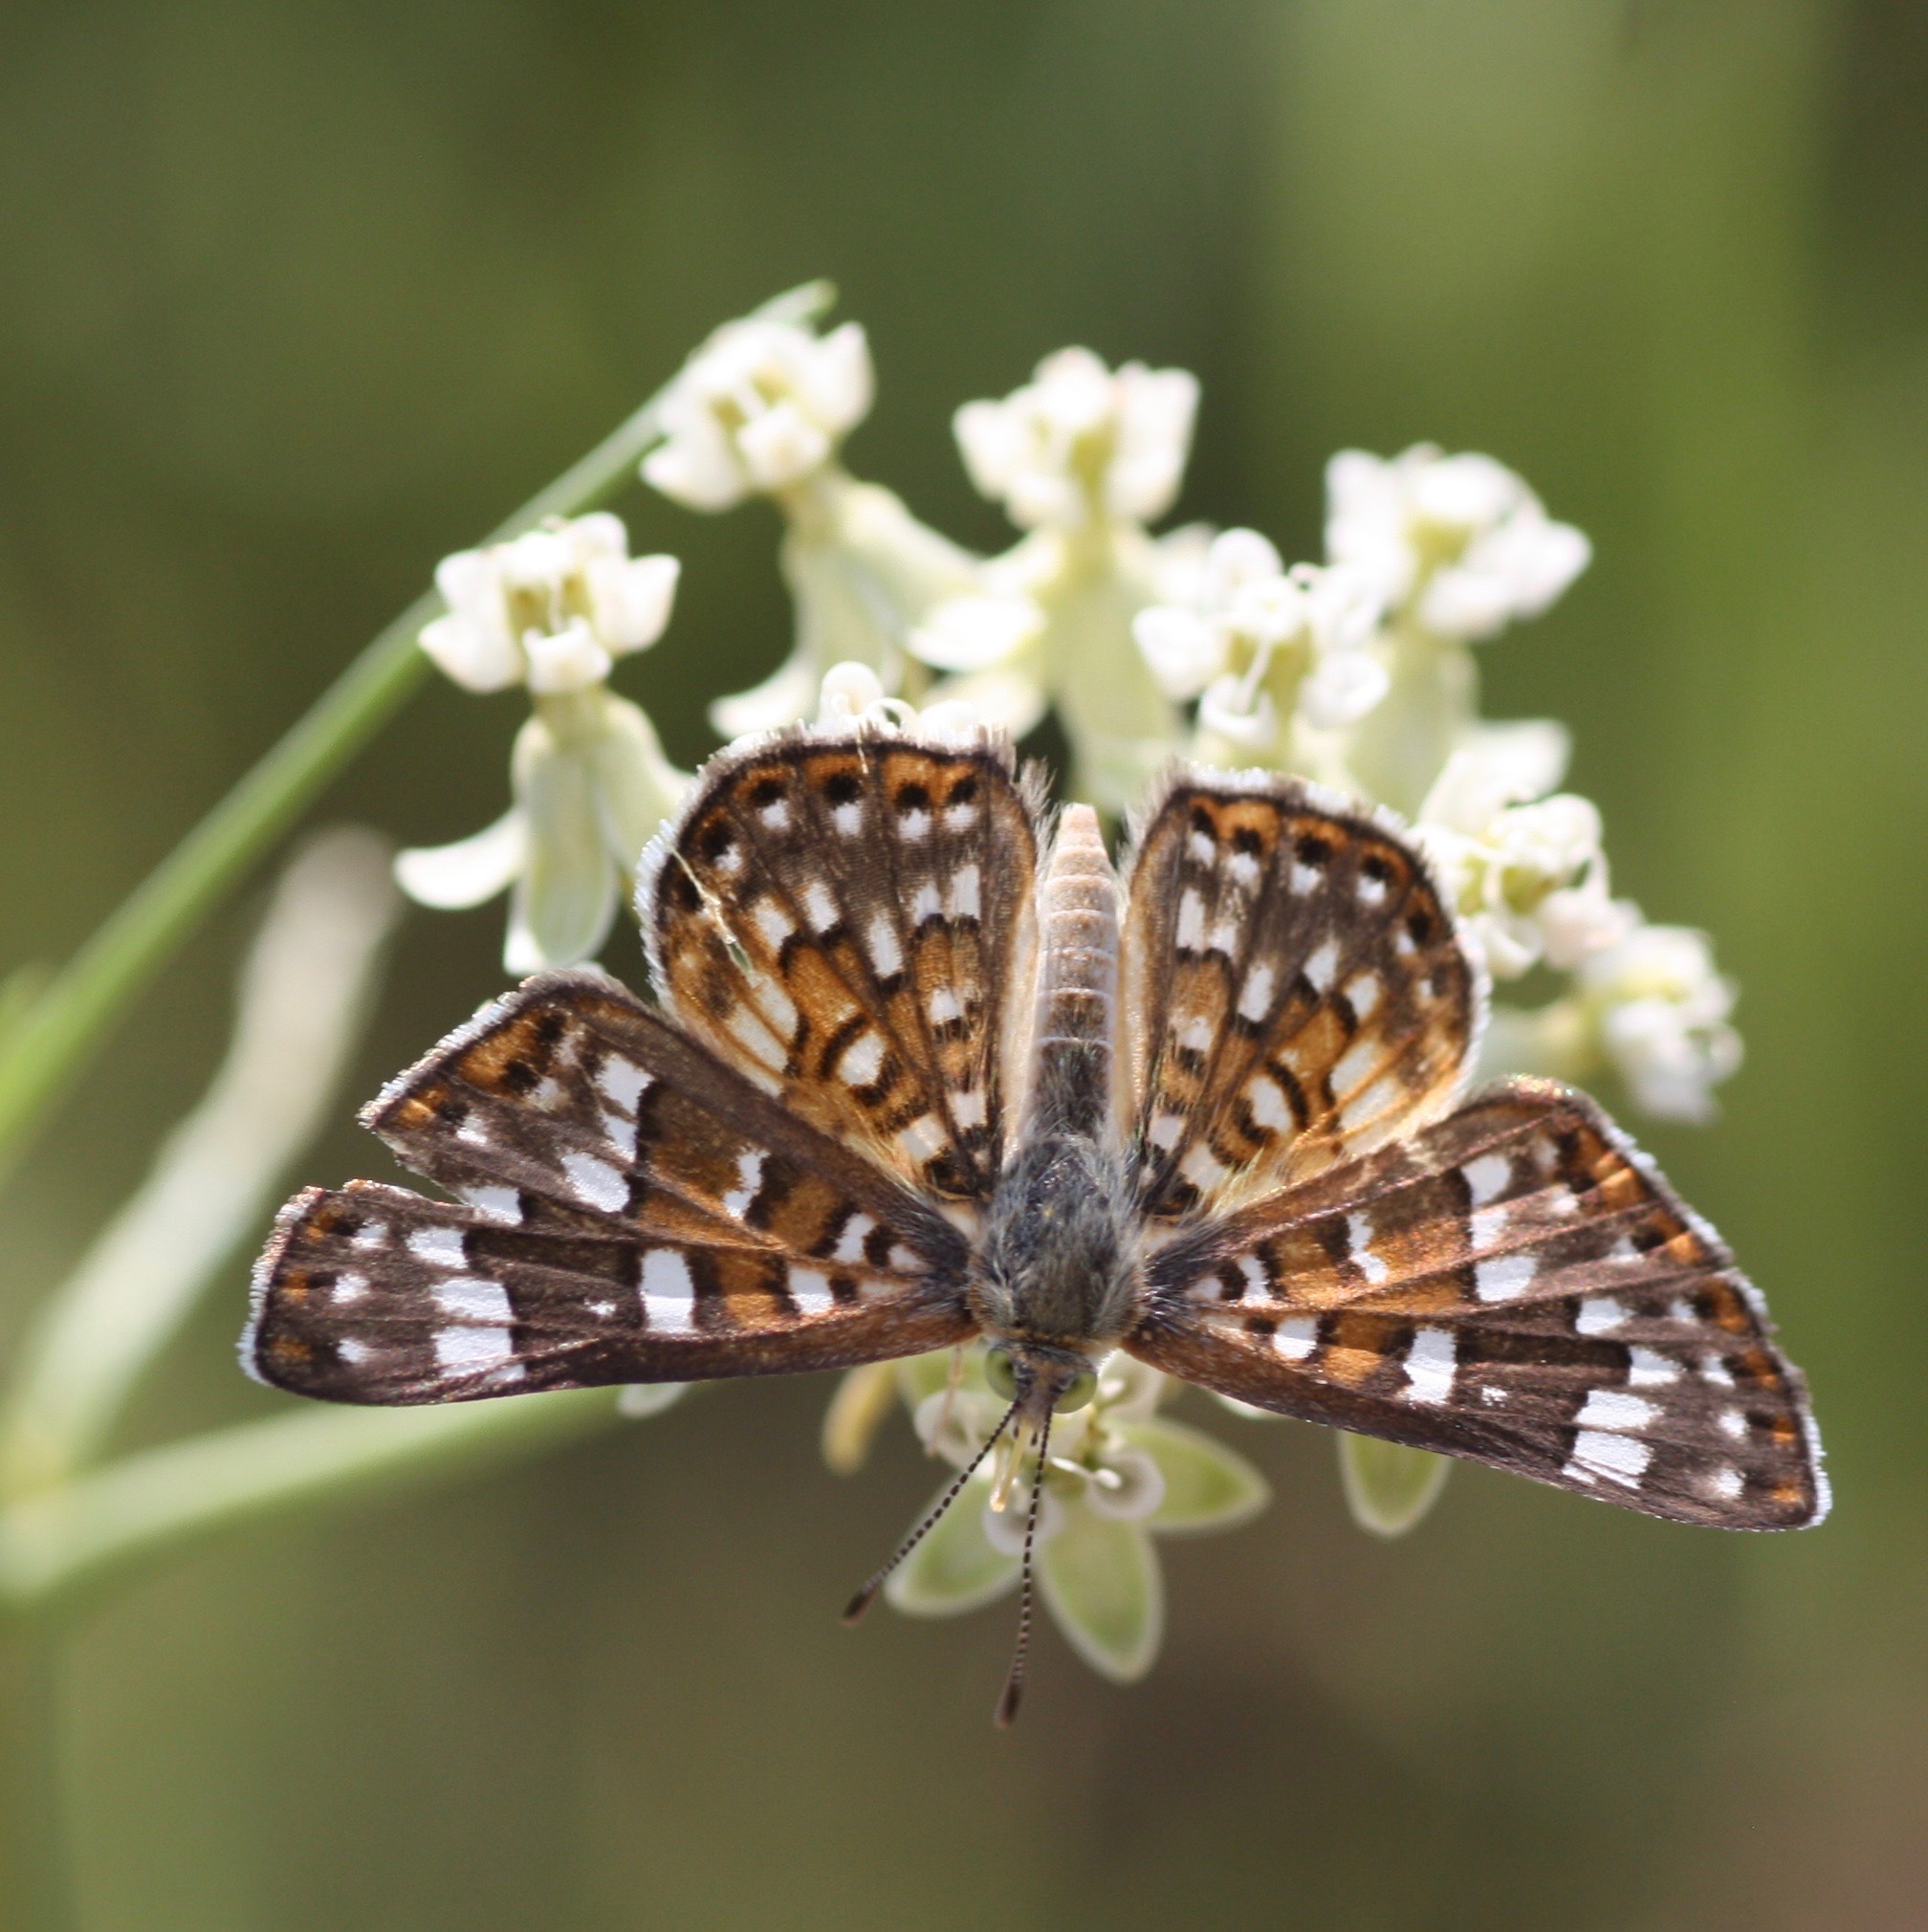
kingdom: Animalia
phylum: Arthropoda
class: Insecta
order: Lepidoptera
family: Riodinidae
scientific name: Riodinidae
